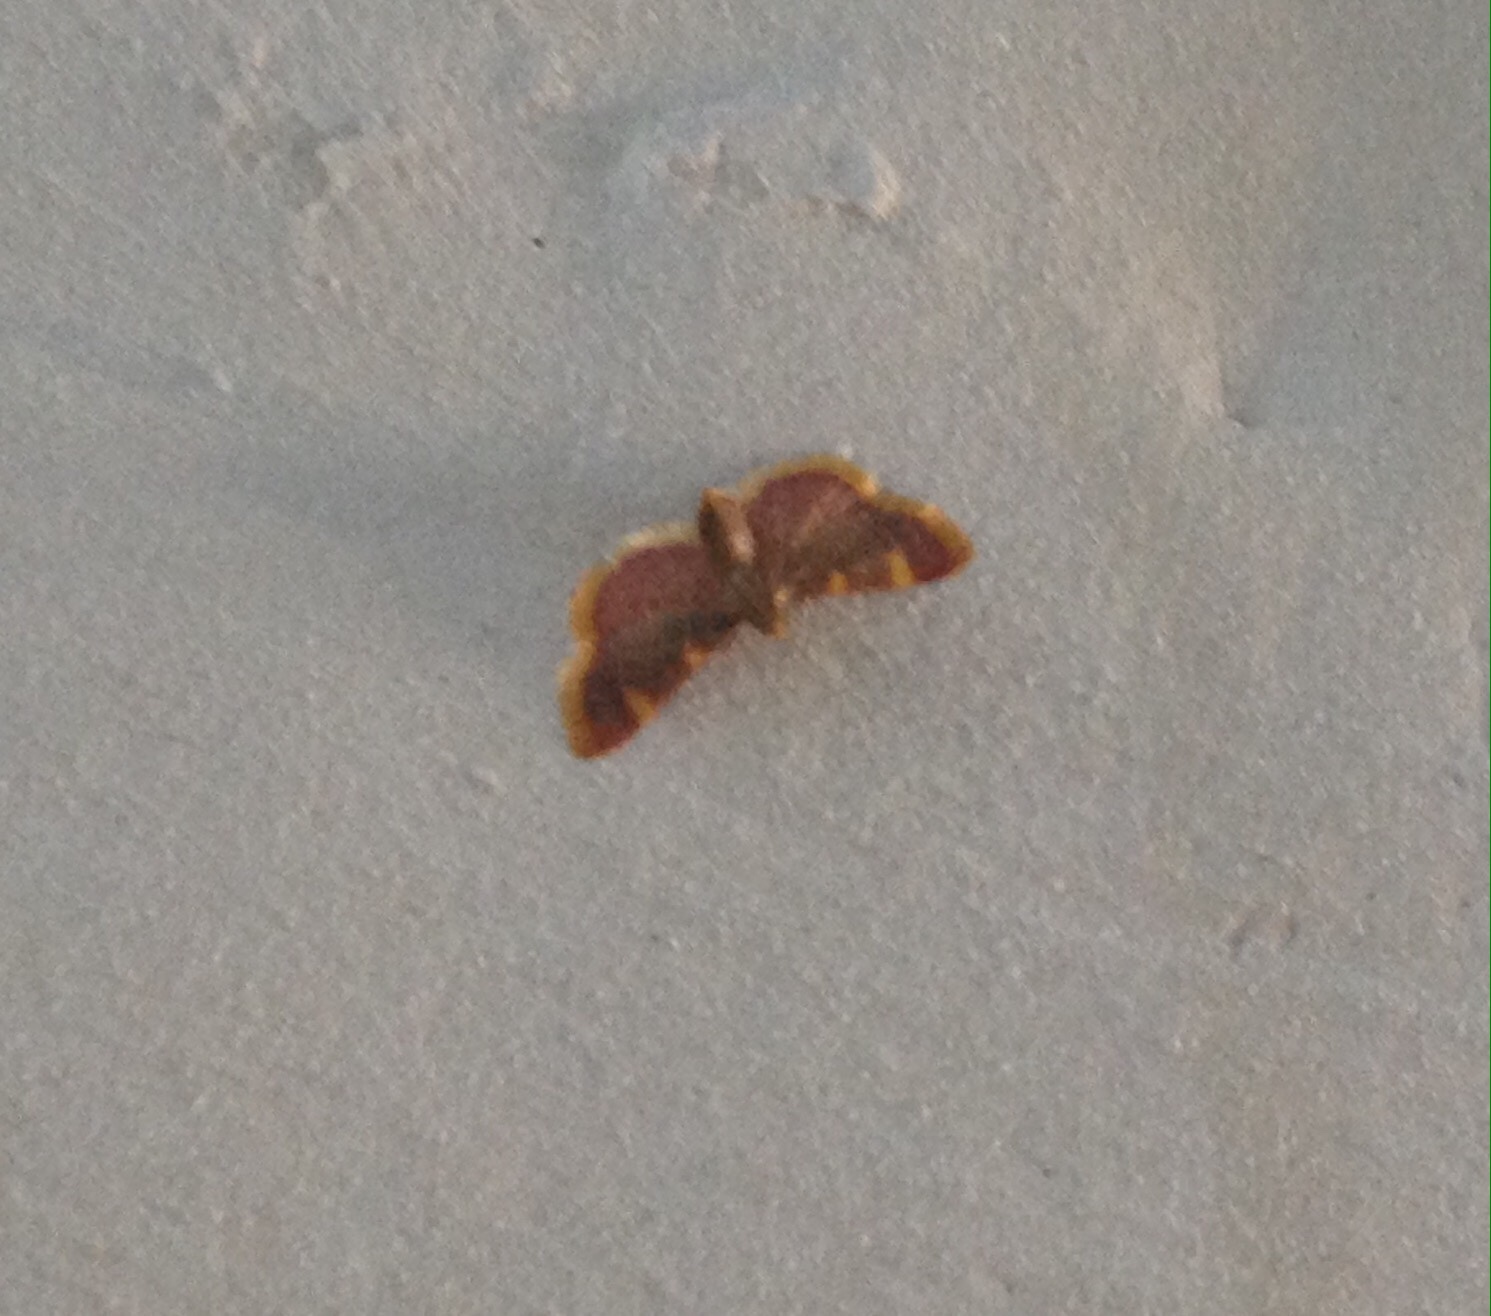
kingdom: Animalia
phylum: Arthropoda
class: Insecta
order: Lepidoptera
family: Pyralidae
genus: Hypsopygia
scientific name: Hypsopygia costalis
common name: Gold triangle
